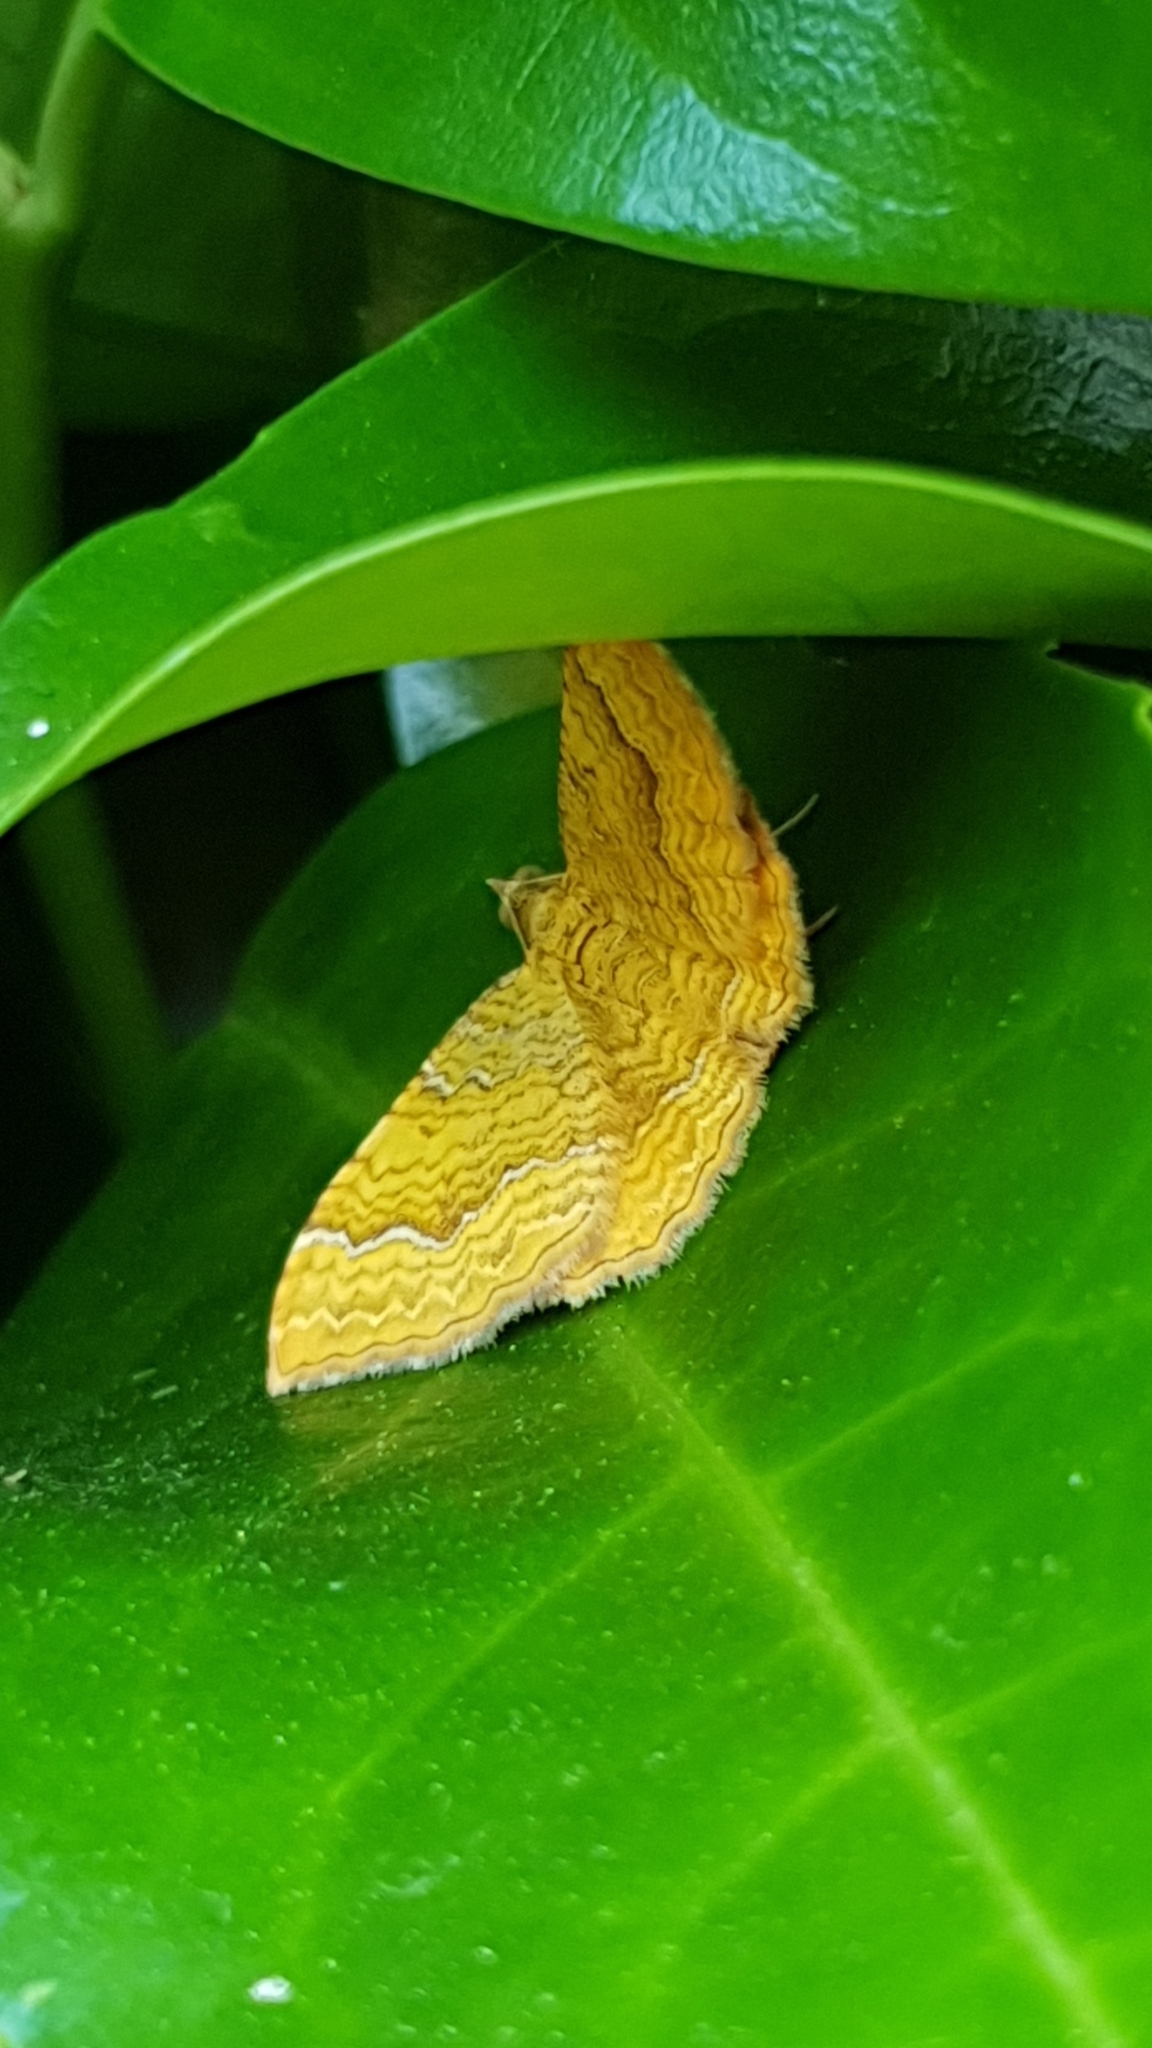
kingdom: Animalia
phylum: Arthropoda
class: Insecta
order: Lepidoptera
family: Geometridae
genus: Camptogramma
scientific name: Camptogramma bilineata
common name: Yellow shell
